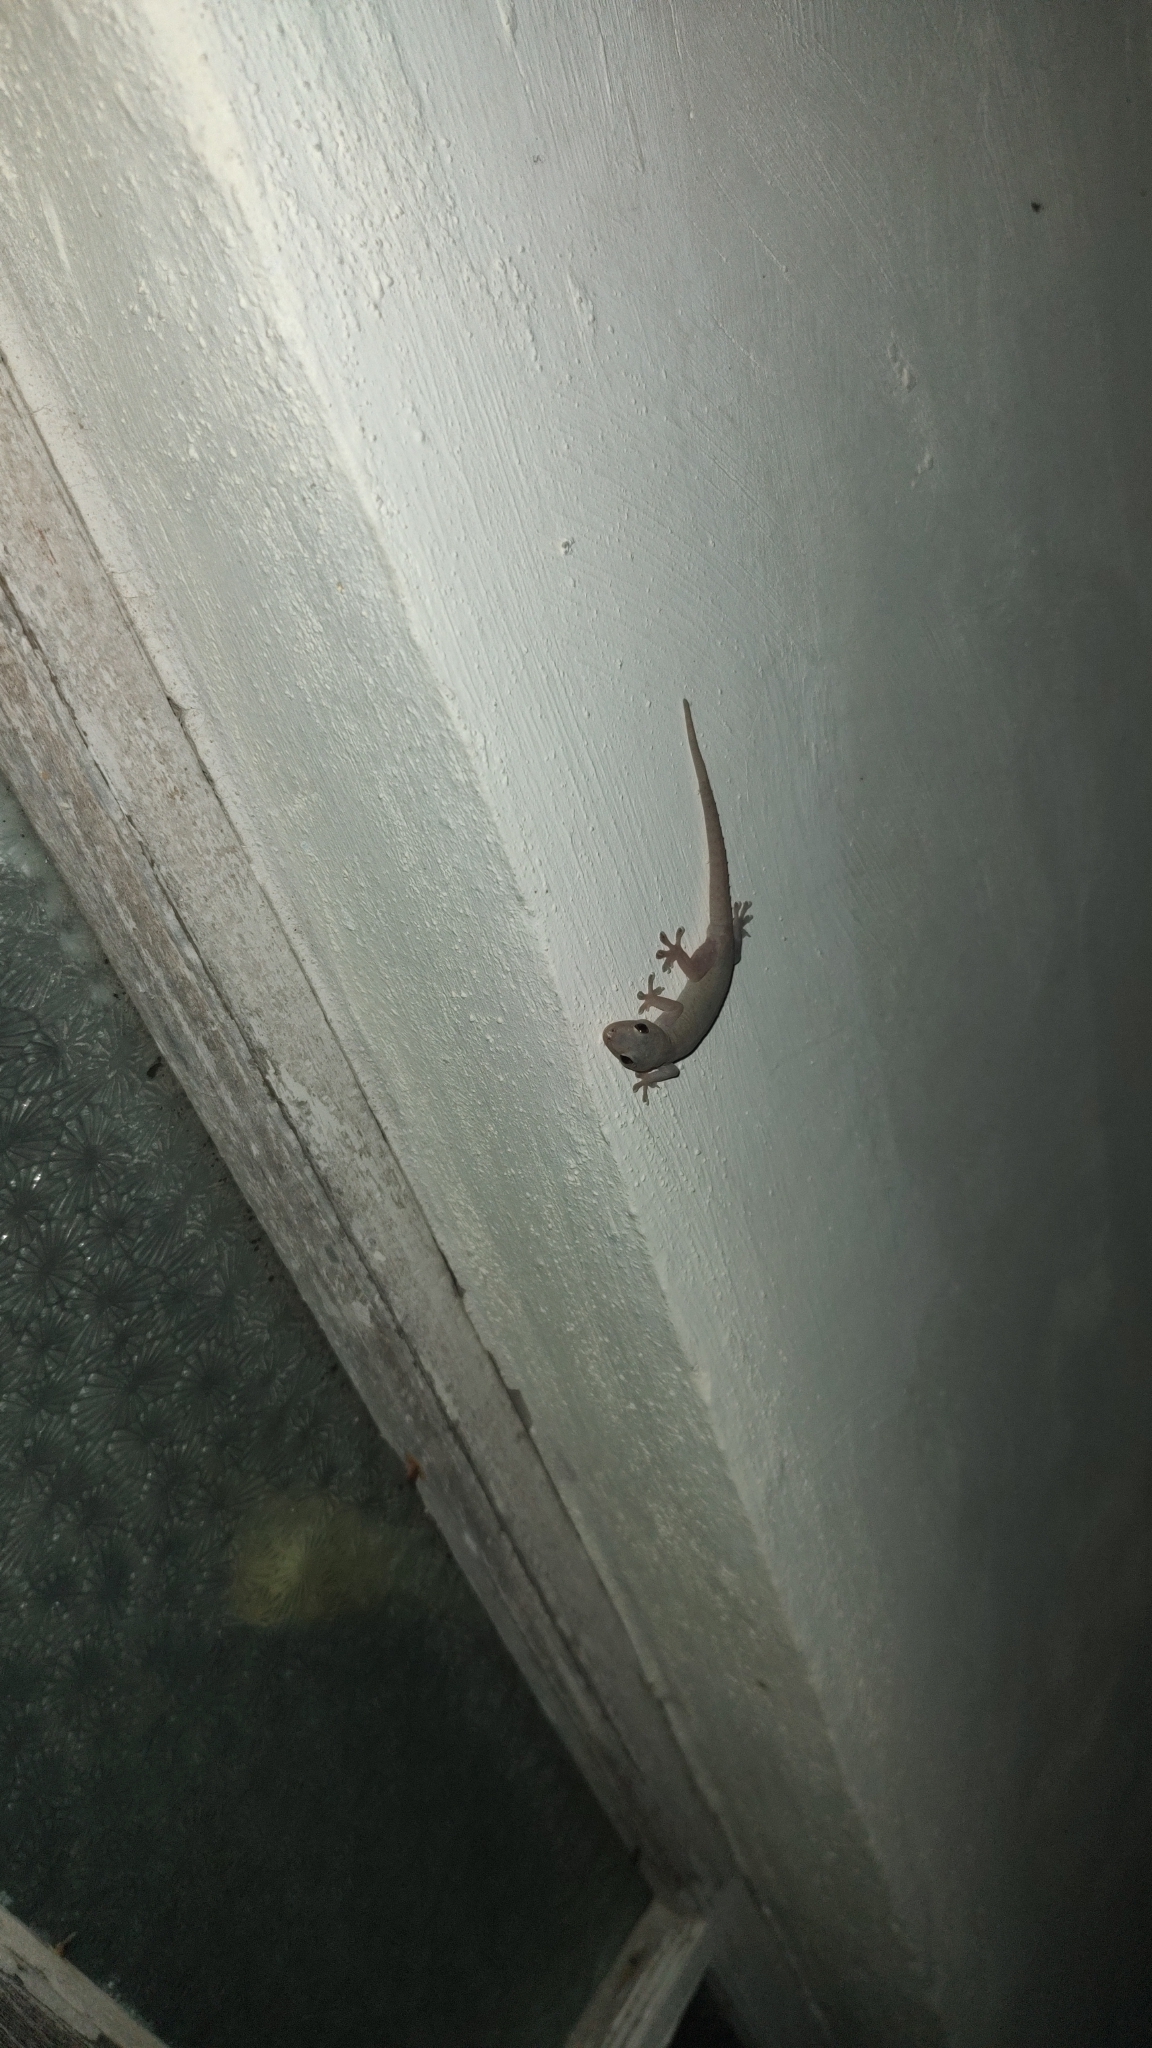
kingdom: Animalia
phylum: Chordata
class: Squamata
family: Gekkonidae
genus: Hemidactylus
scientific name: Hemidactylus frenatus
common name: Common house gecko
